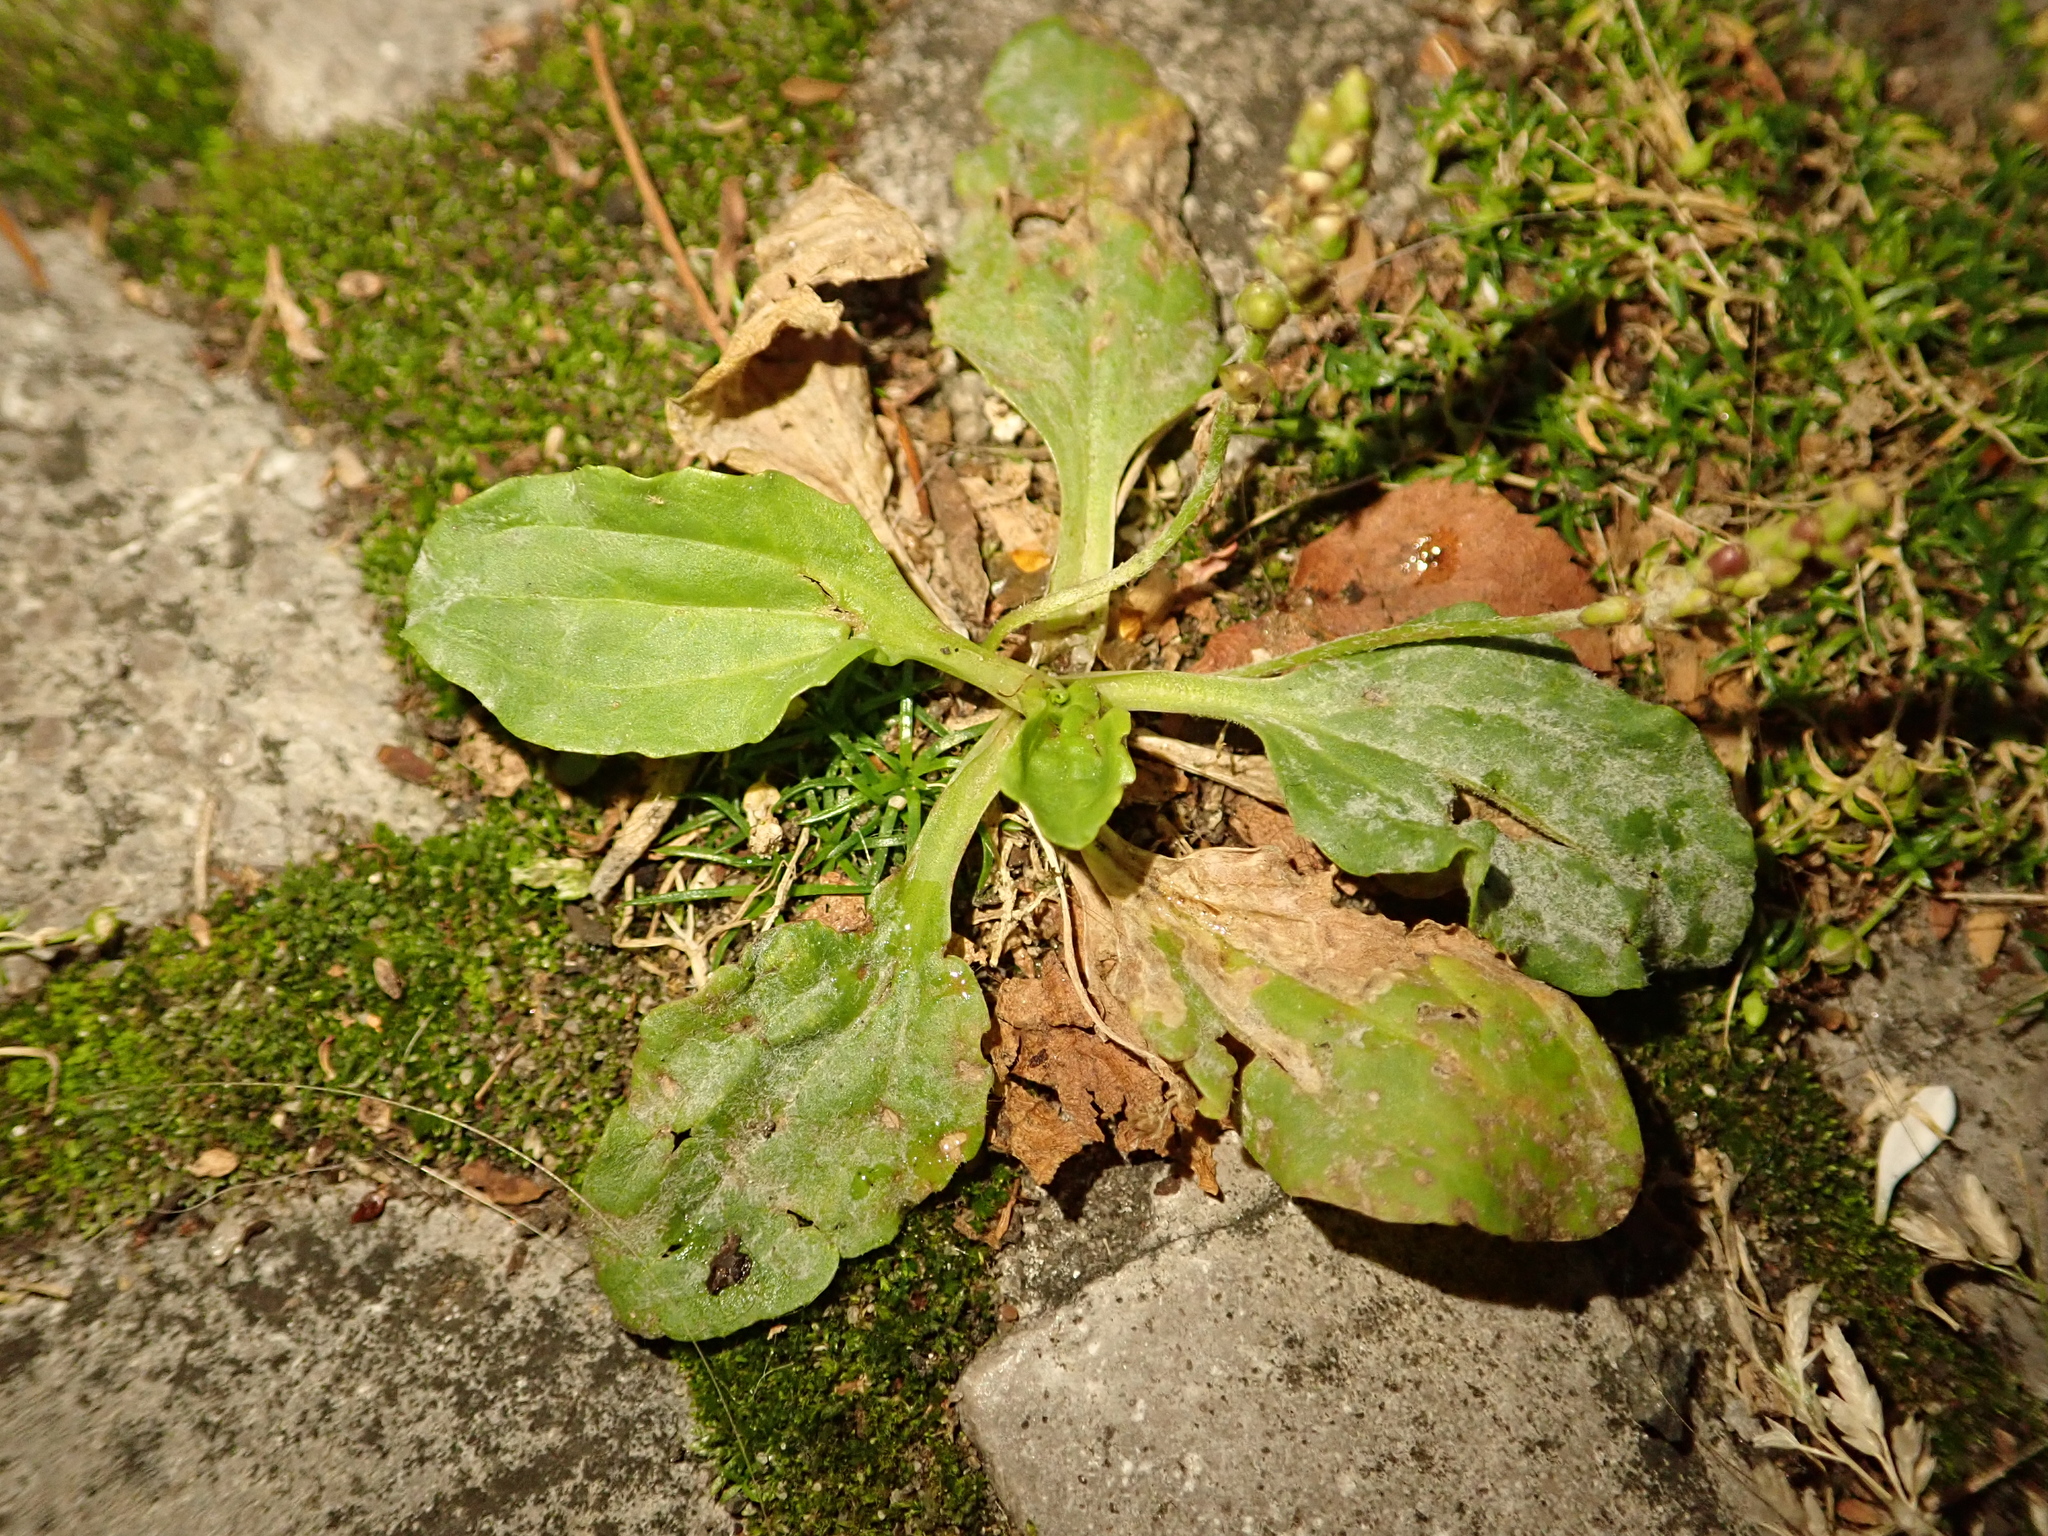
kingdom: Plantae
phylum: Tracheophyta
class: Magnoliopsida
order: Lamiales
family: Plantaginaceae
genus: Plantago
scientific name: Plantago major
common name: Common plantain
